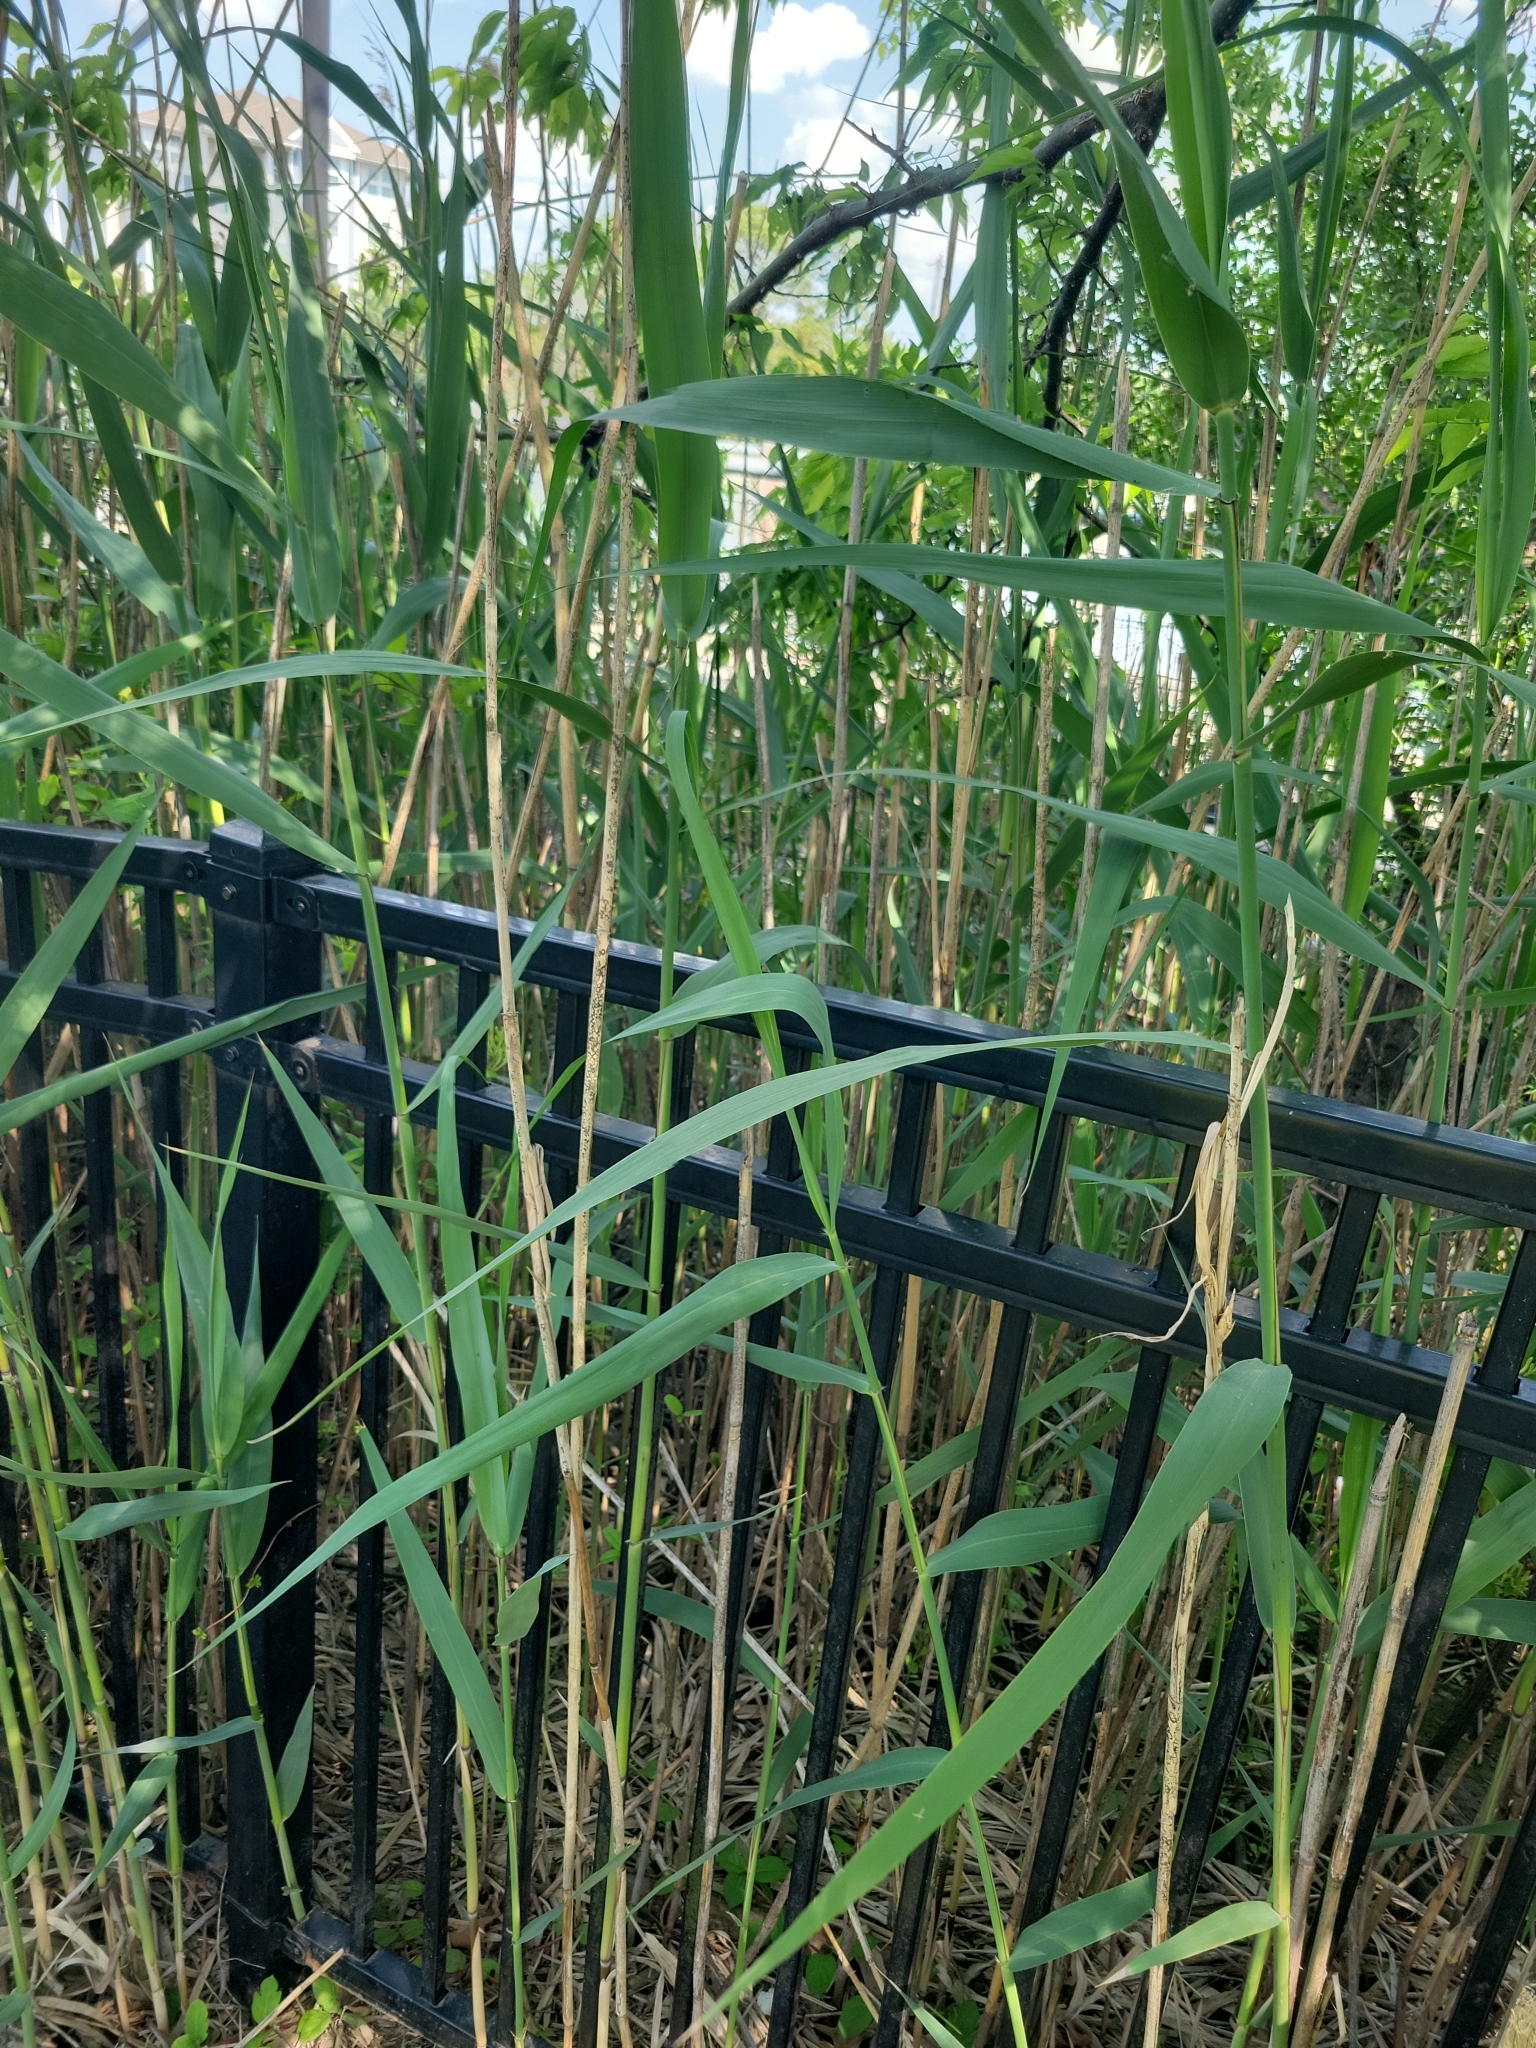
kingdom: Plantae
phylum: Tracheophyta
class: Liliopsida
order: Poales
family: Poaceae
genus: Phragmites
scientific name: Phragmites australis
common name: Common reed
